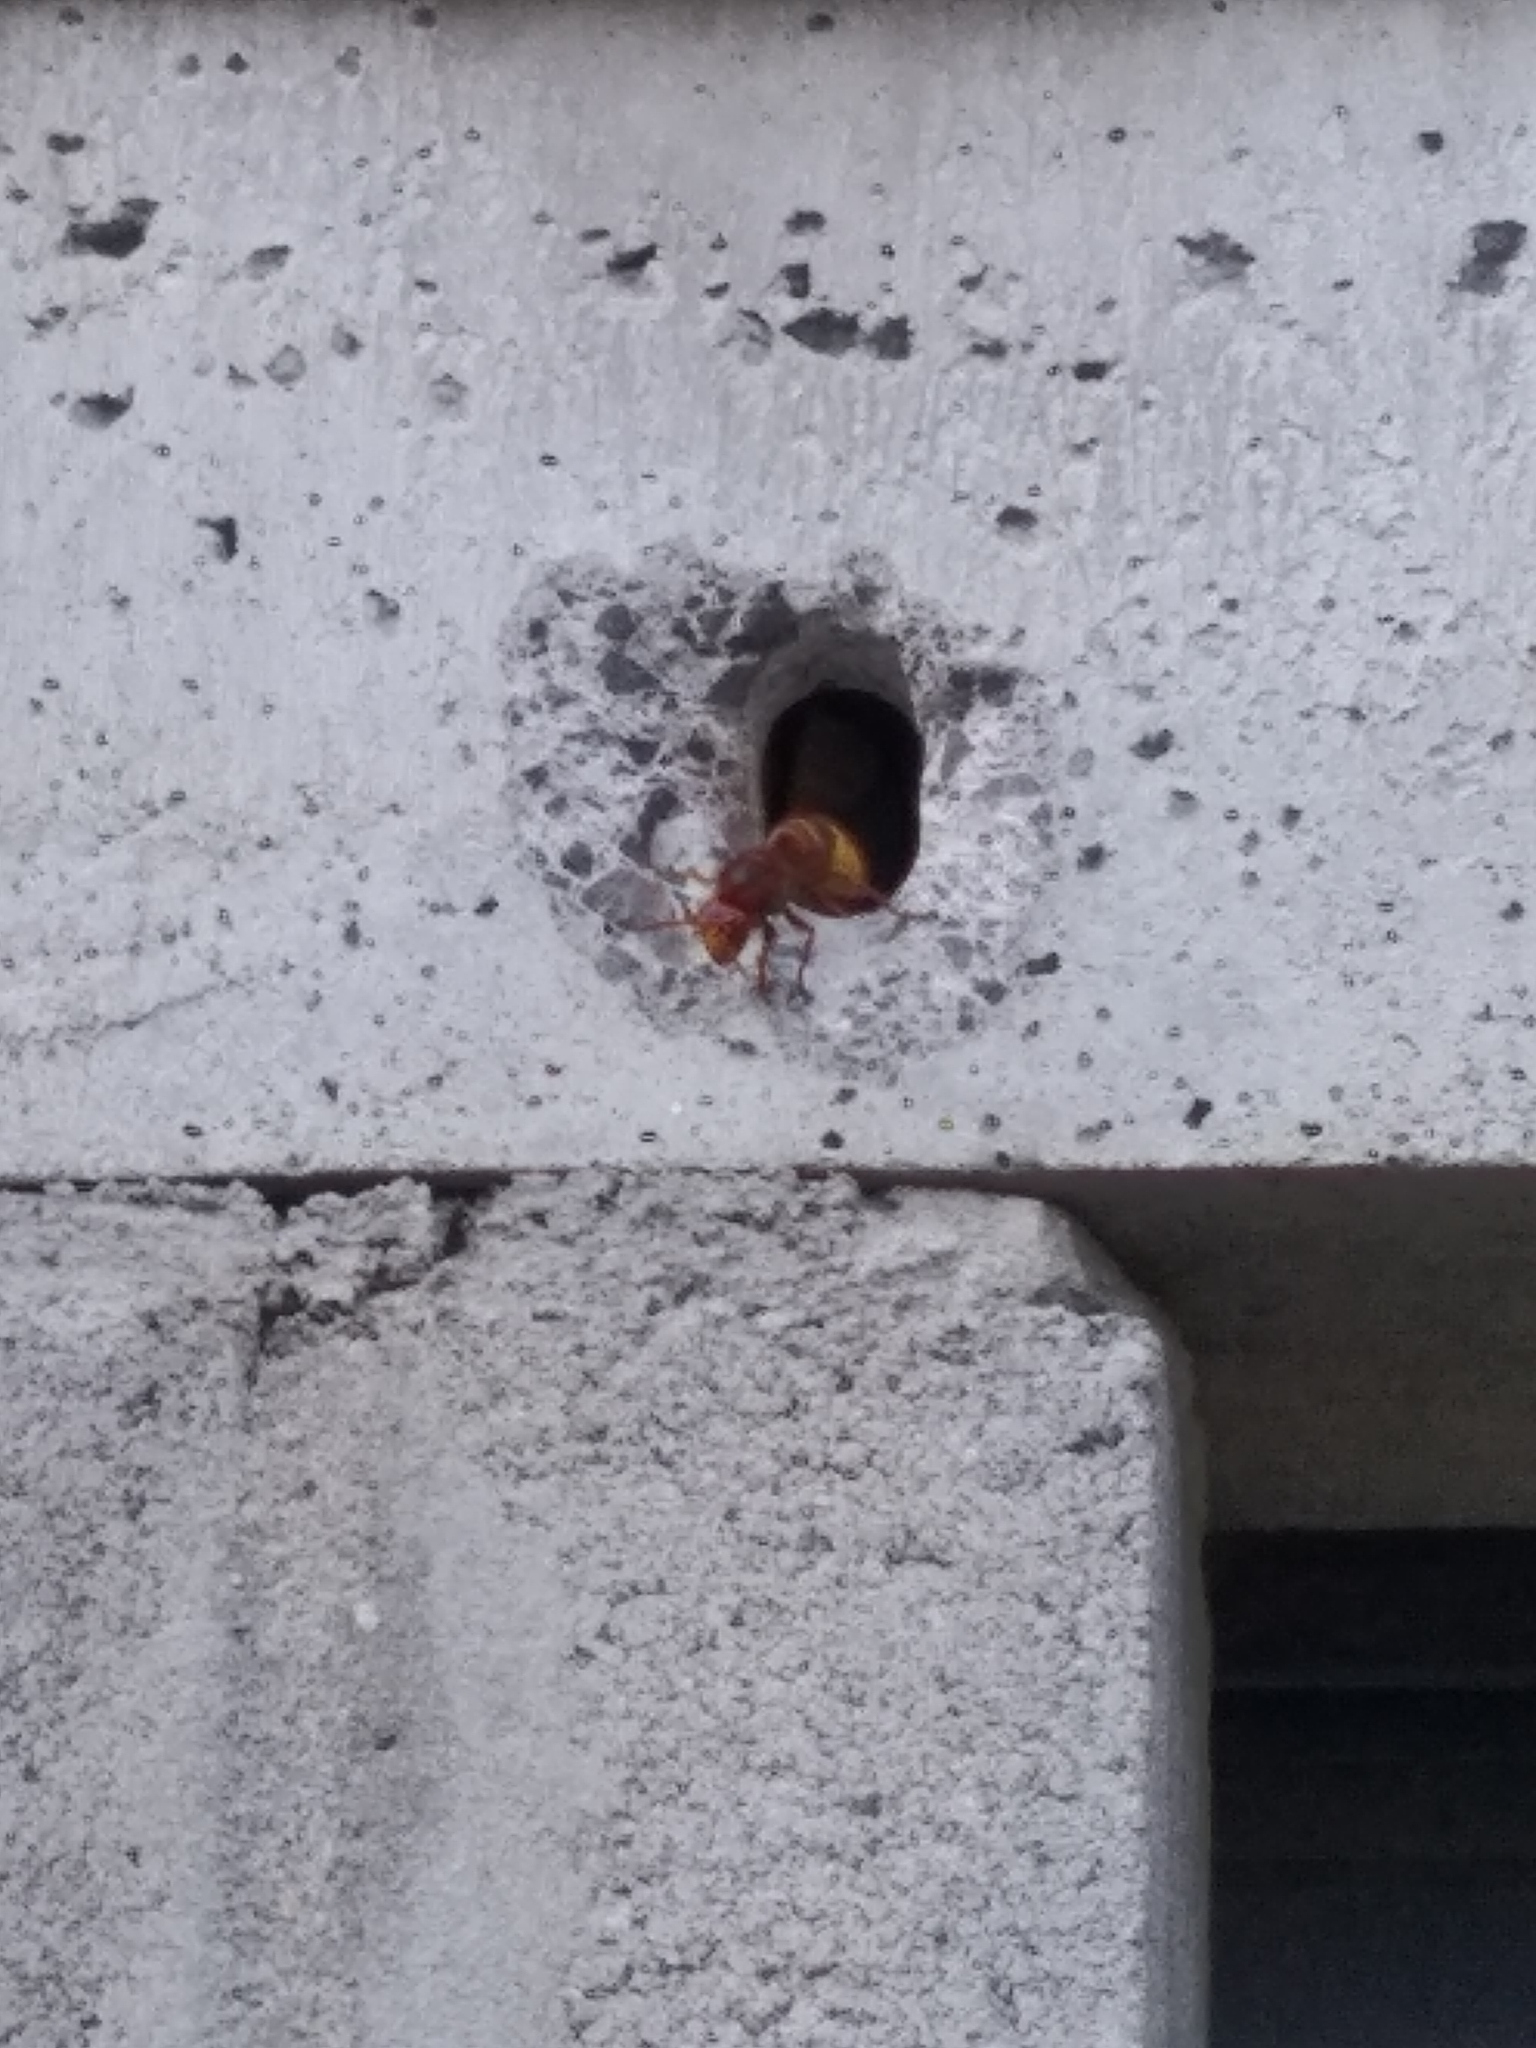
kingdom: Animalia
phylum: Arthropoda
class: Insecta
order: Hymenoptera
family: Vespidae
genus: Vespa
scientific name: Vespa crabro
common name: Hornet
